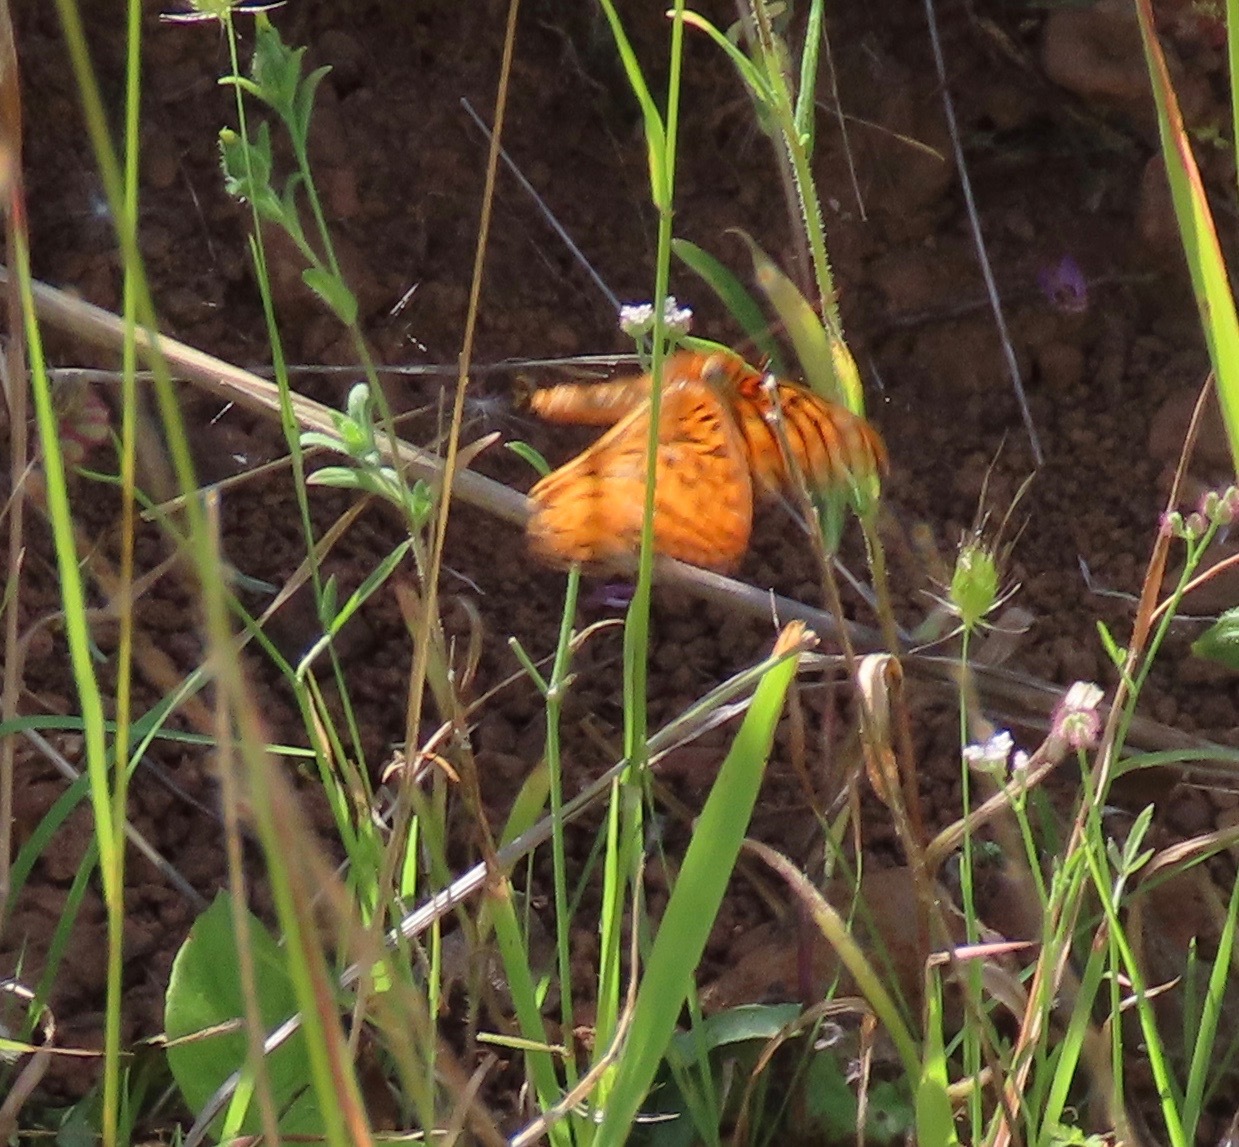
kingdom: Animalia
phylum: Arthropoda
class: Insecta
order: Lepidoptera
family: Nymphalidae
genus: Speyeria
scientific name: Speyeria callippe
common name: Callippe fritillary
